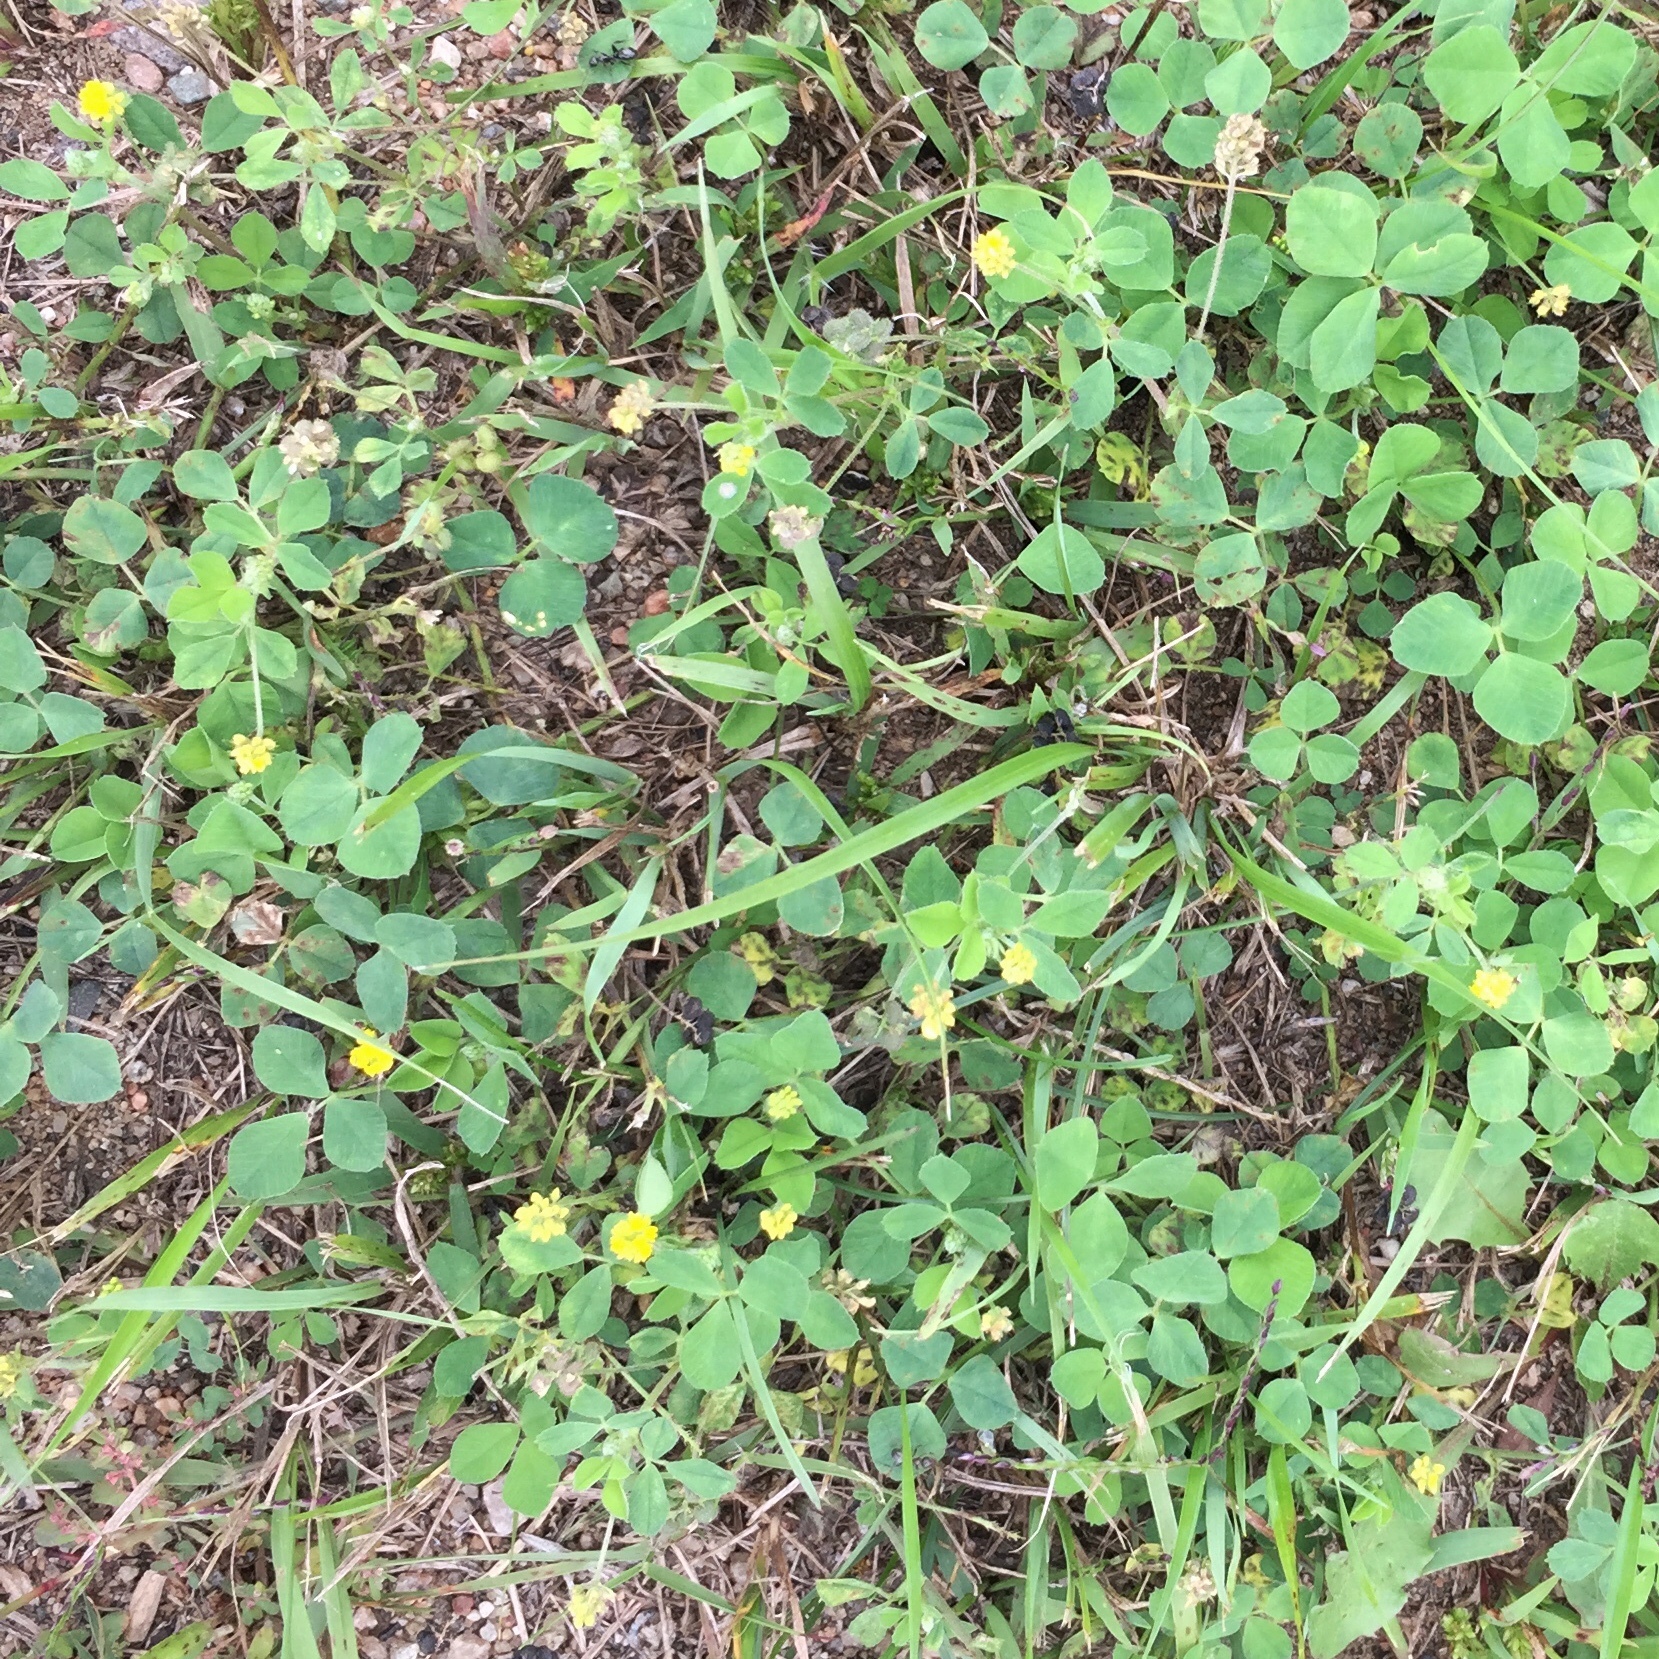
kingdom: Plantae
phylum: Tracheophyta
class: Magnoliopsida
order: Fabales
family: Fabaceae
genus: Medicago
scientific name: Medicago lupulina
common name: Black medick
